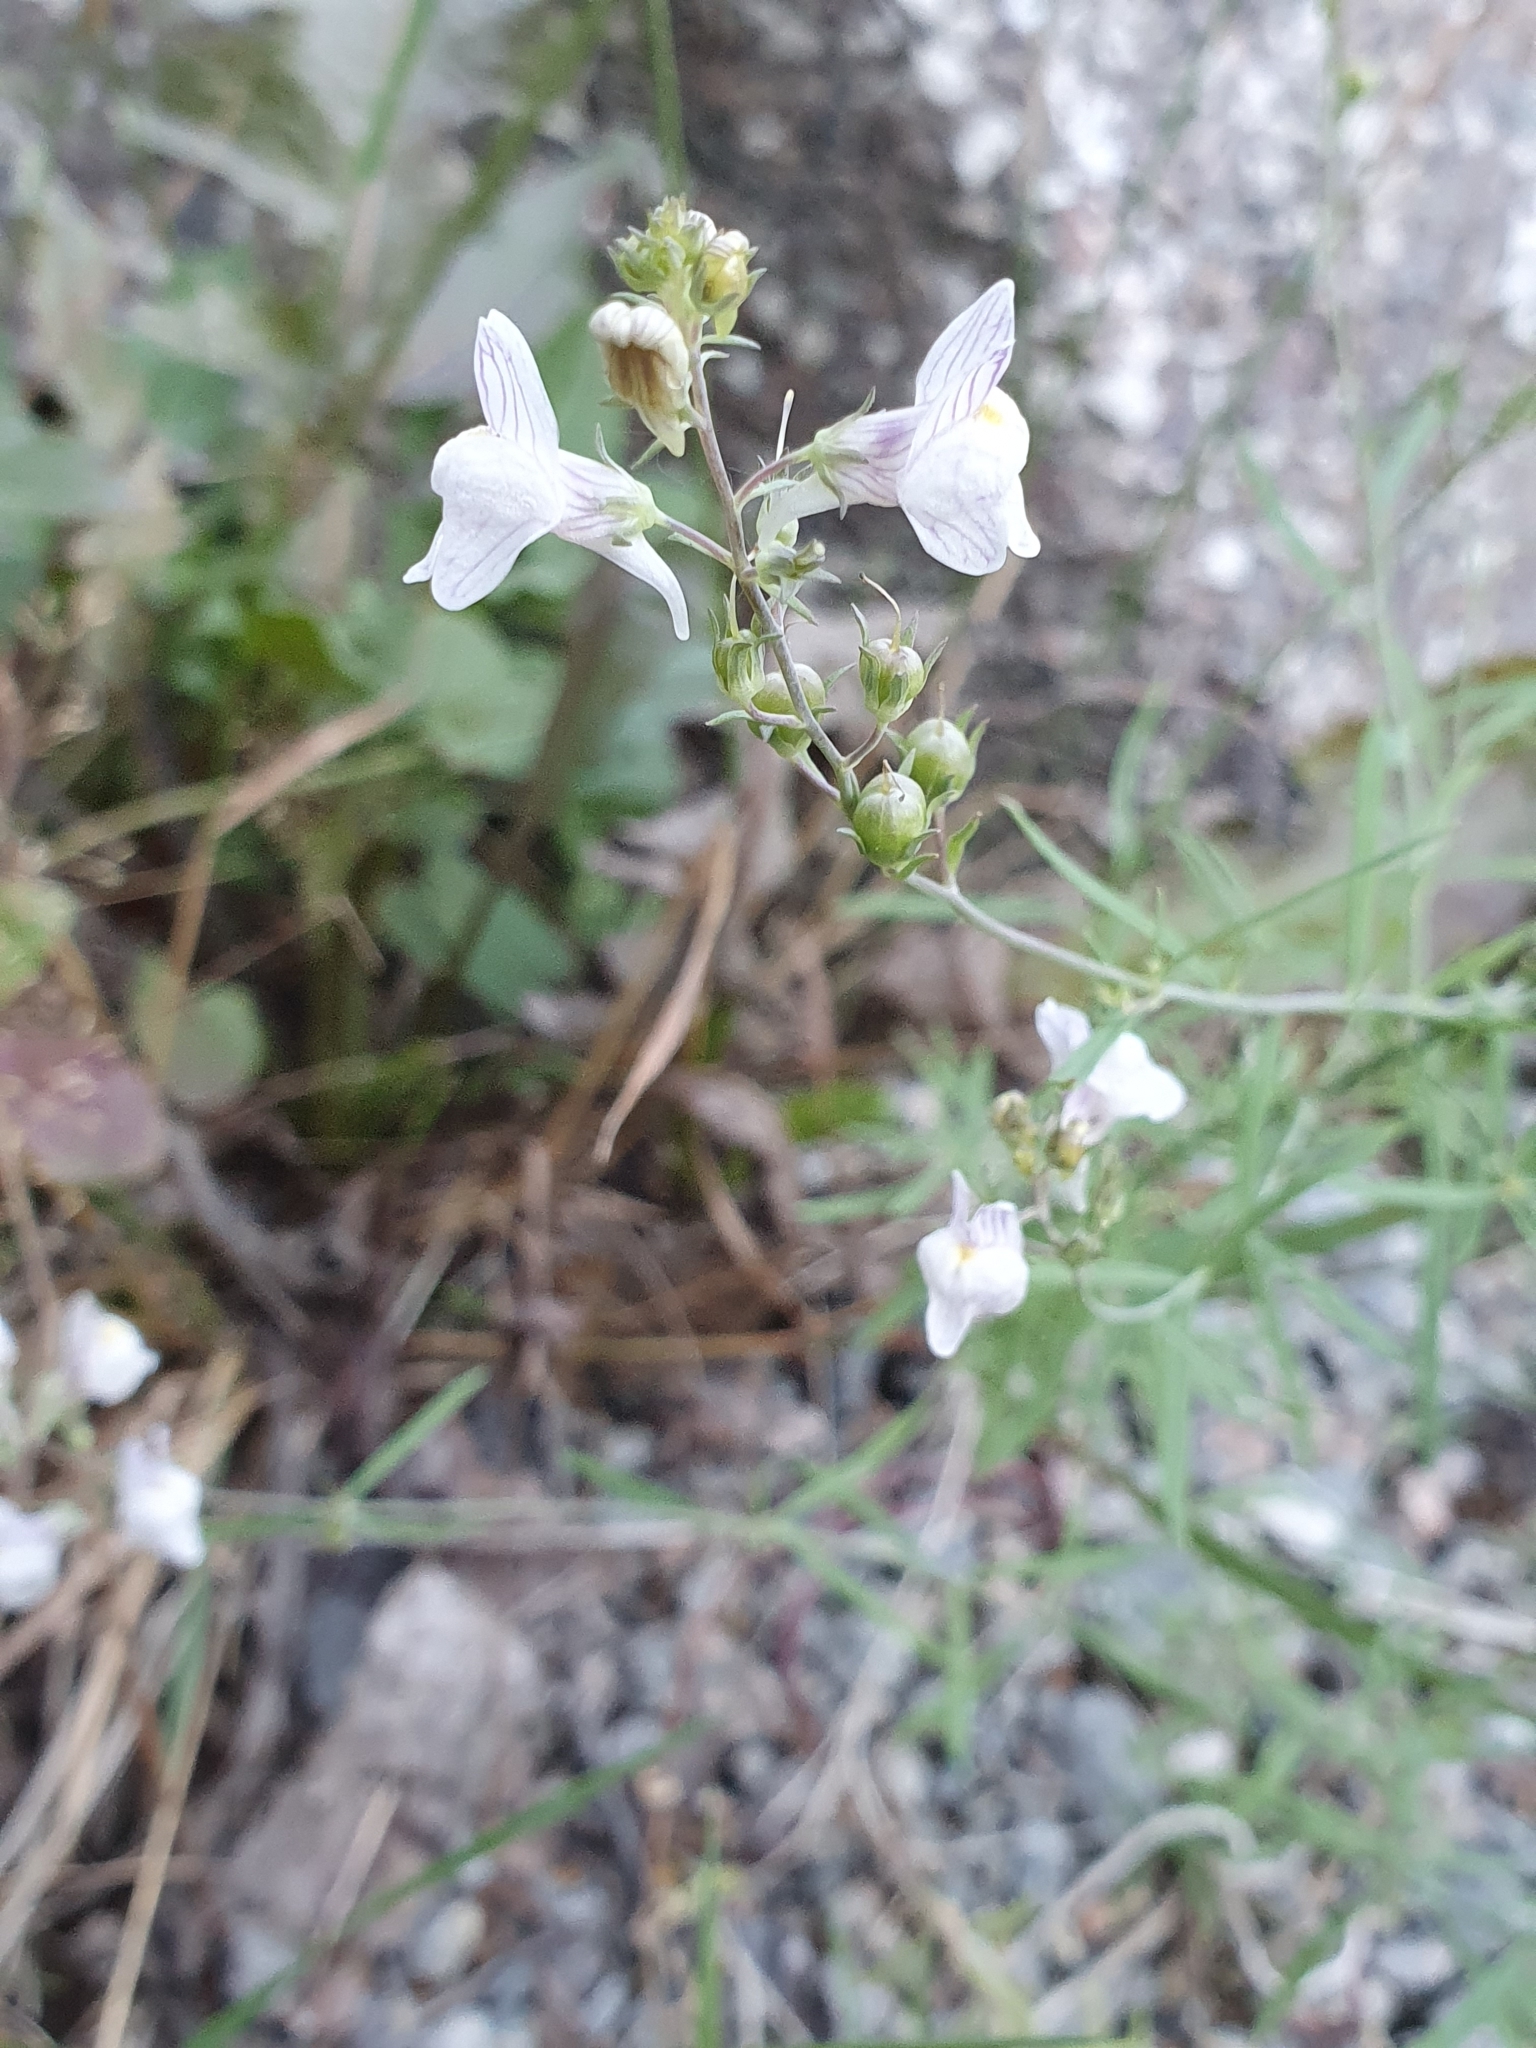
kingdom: Plantae
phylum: Tracheophyta
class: Magnoliopsida
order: Lamiales
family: Plantaginaceae
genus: Linaria
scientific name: Linaria repens
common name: Pale toadflax
